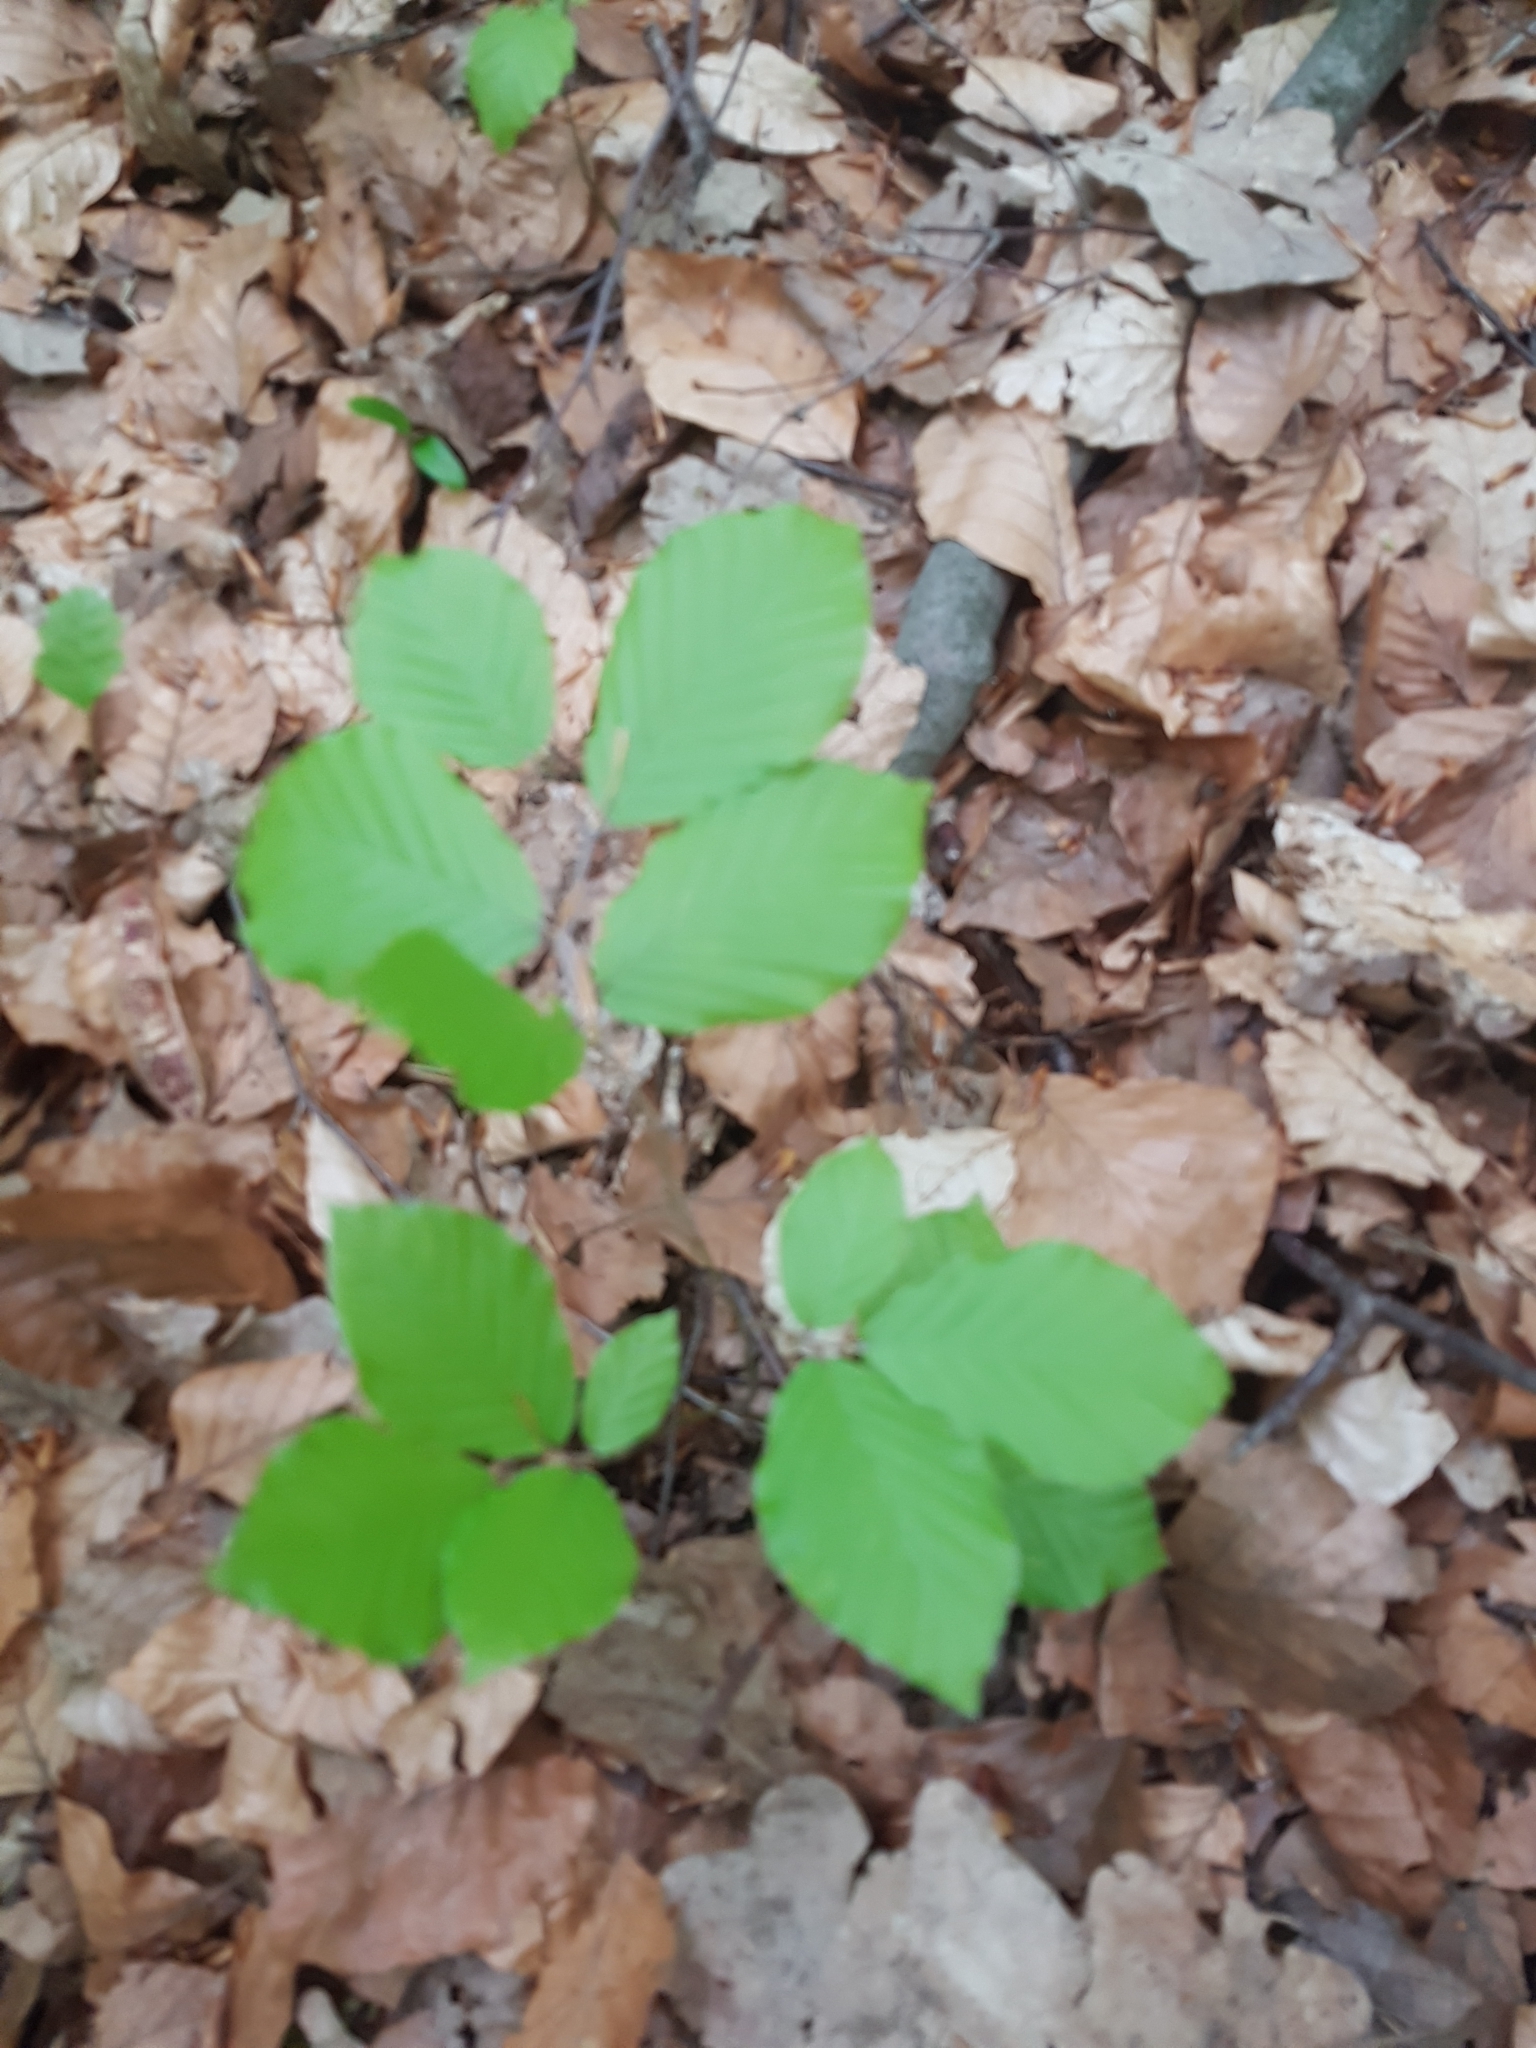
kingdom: Plantae
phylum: Tracheophyta
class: Magnoliopsida
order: Fagales
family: Fagaceae
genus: Fagus
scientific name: Fagus sylvatica
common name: Beech
